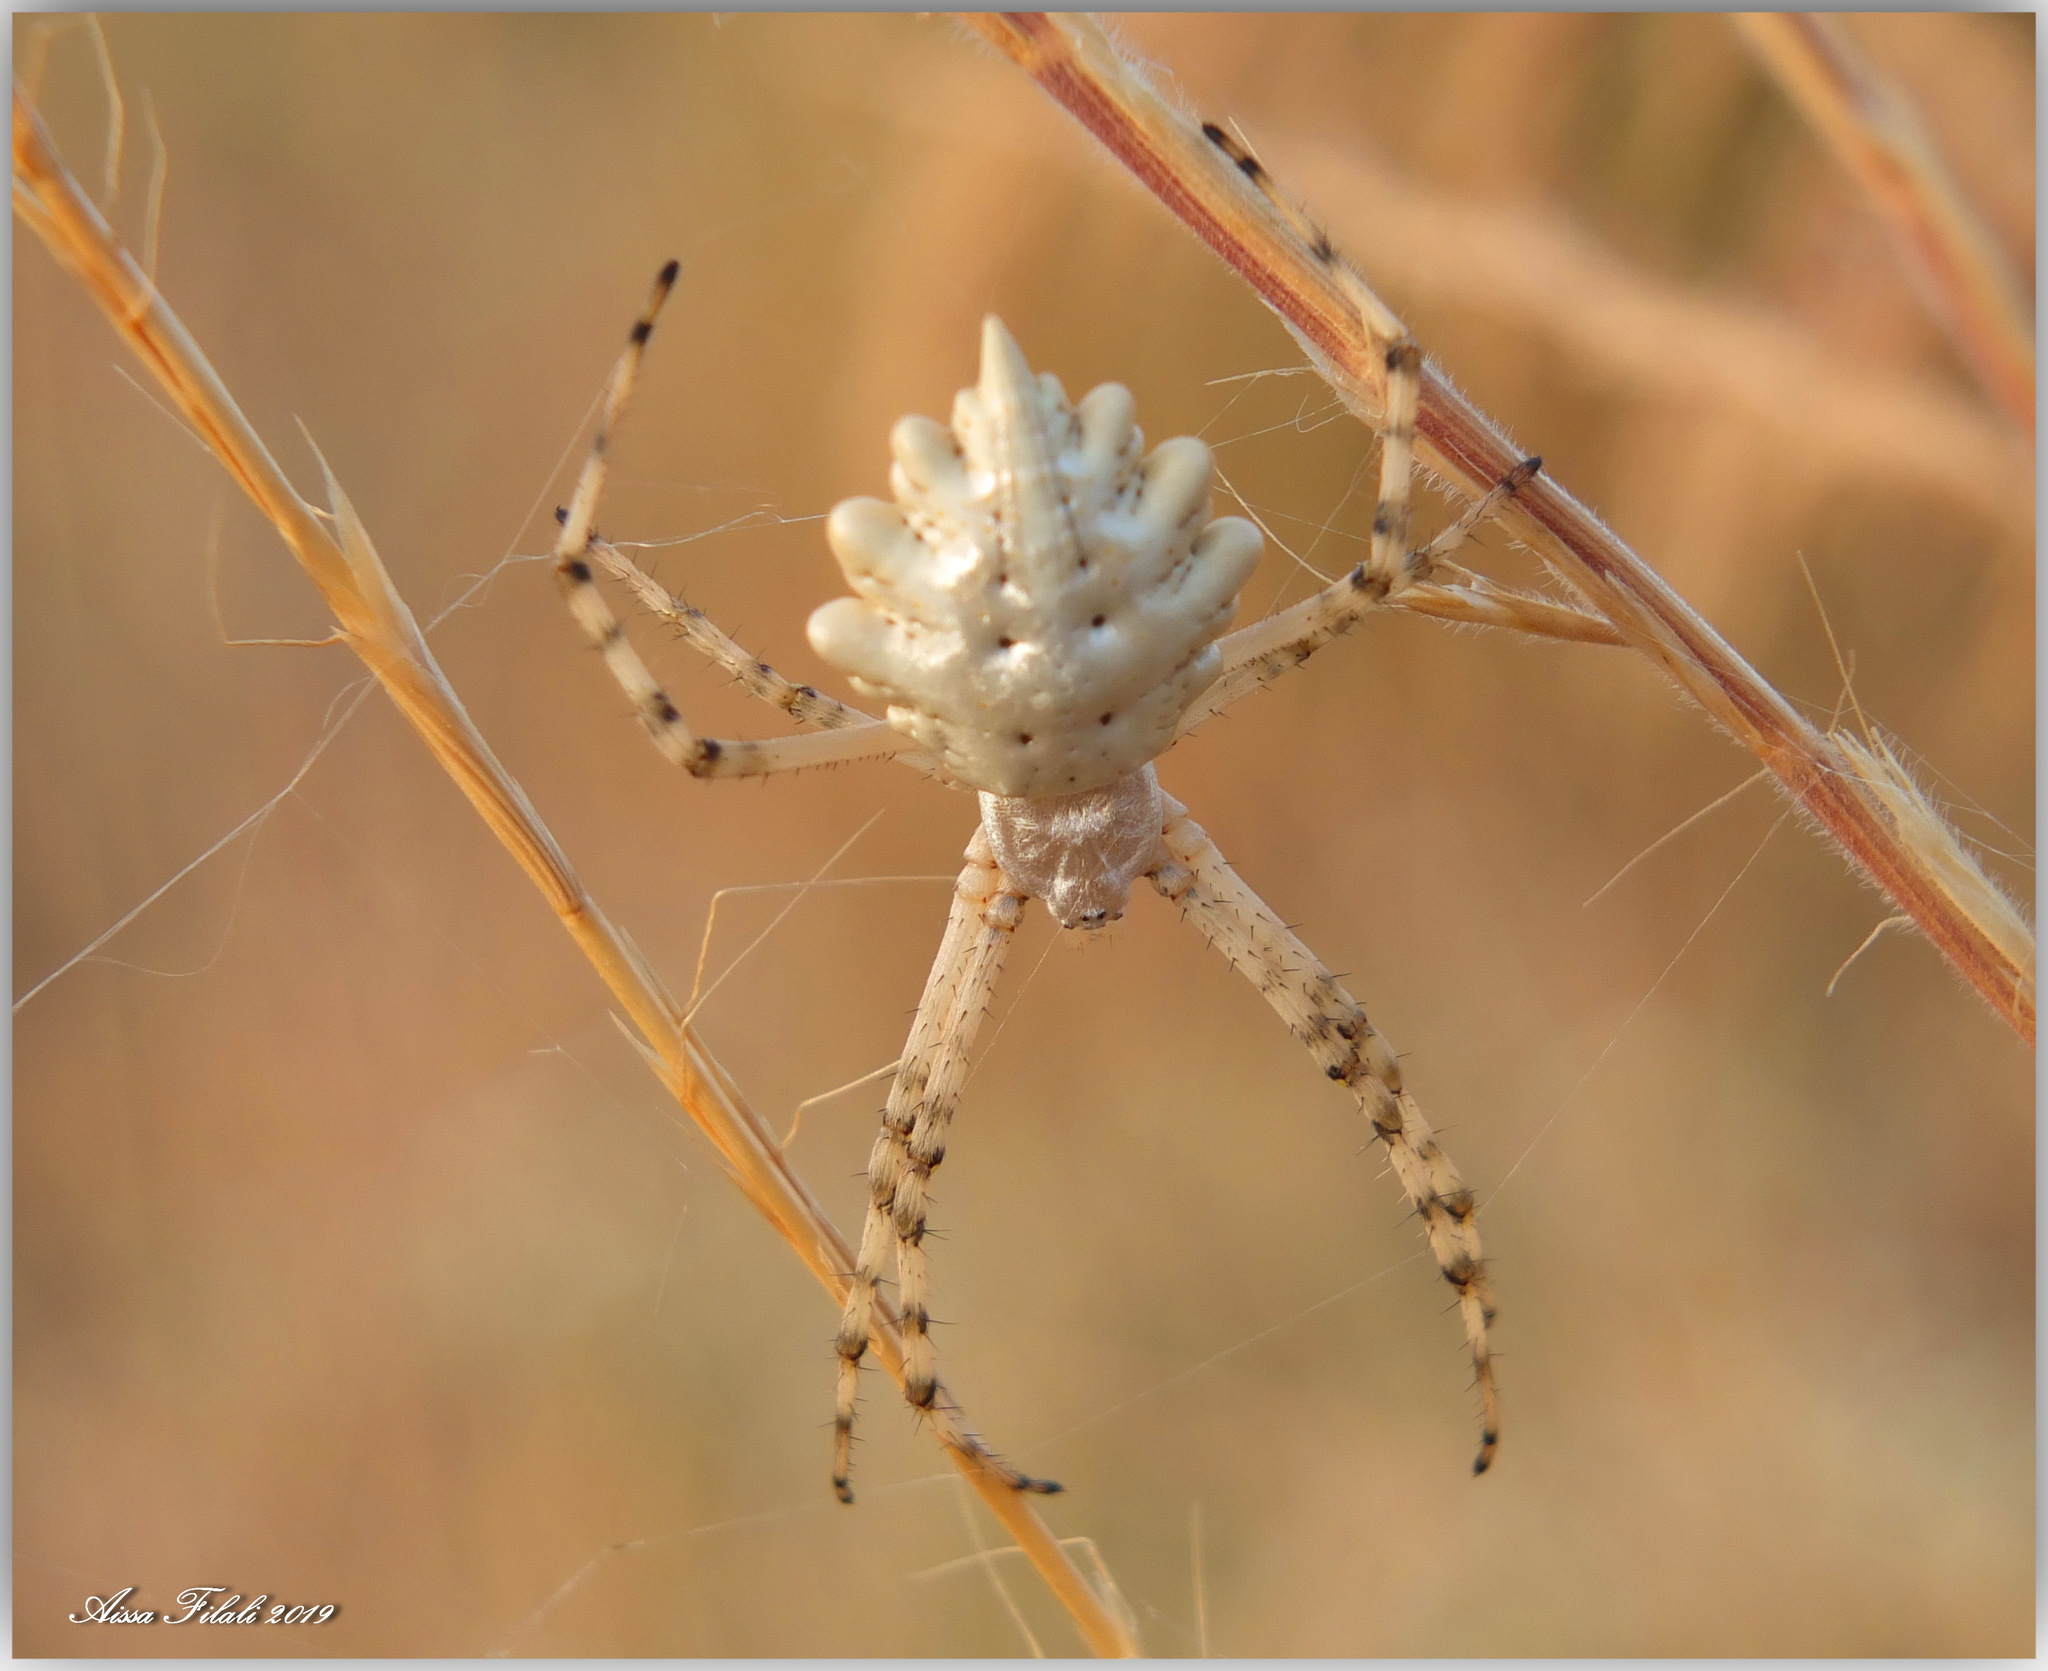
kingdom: Animalia
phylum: Arthropoda
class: Arachnida
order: Araneae
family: Araneidae
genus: Argiope
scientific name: Argiope lobata
